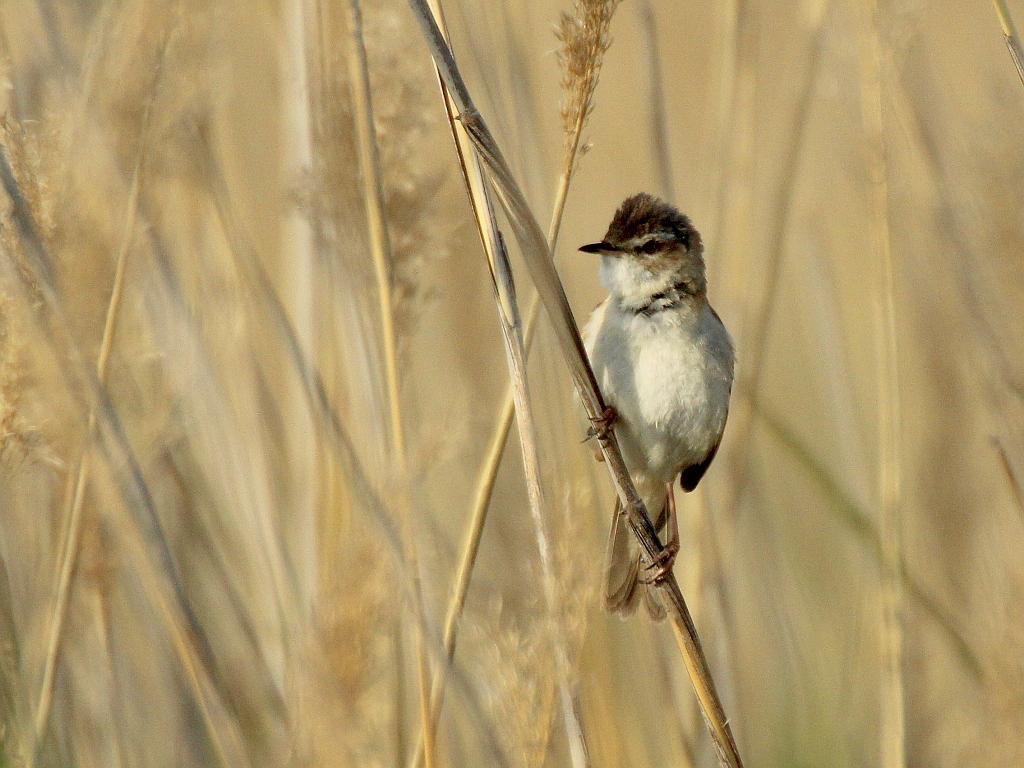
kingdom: Animalia
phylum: Chordata
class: Aves
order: Passeriformes
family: Acrocephalidae
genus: Acrocephalus
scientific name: Acrocephalus agricola
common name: Paddyfield warbler
